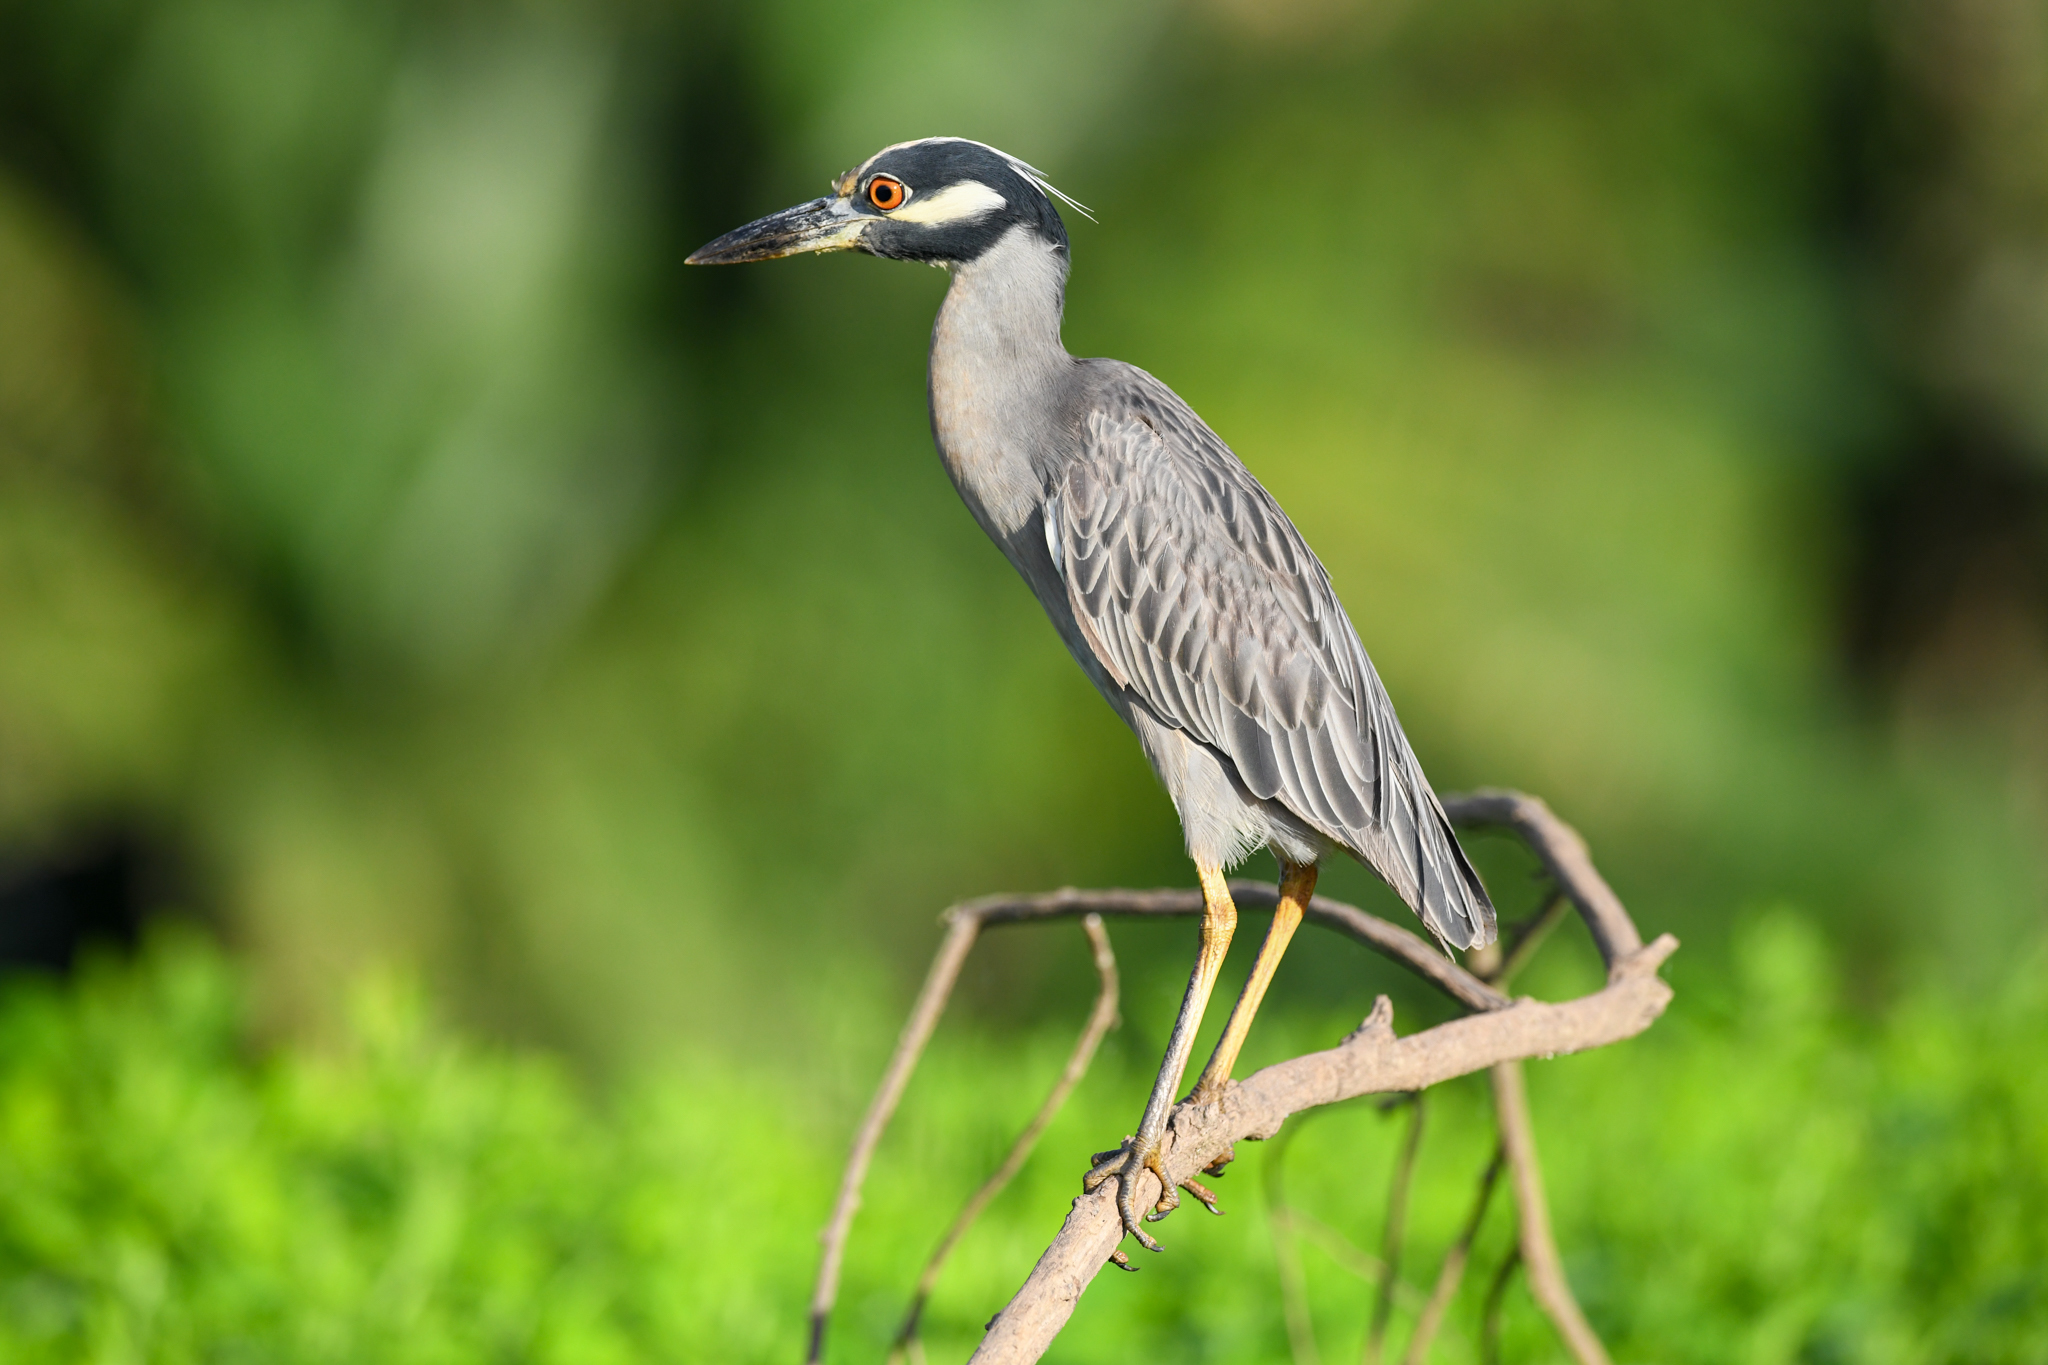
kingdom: Animalia
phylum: Chordata
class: Aves
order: Pelecaniformes
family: Ardeidae
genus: Nyctanassa
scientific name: Nyctanassa violacea
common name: Yellow-crowned night heron
